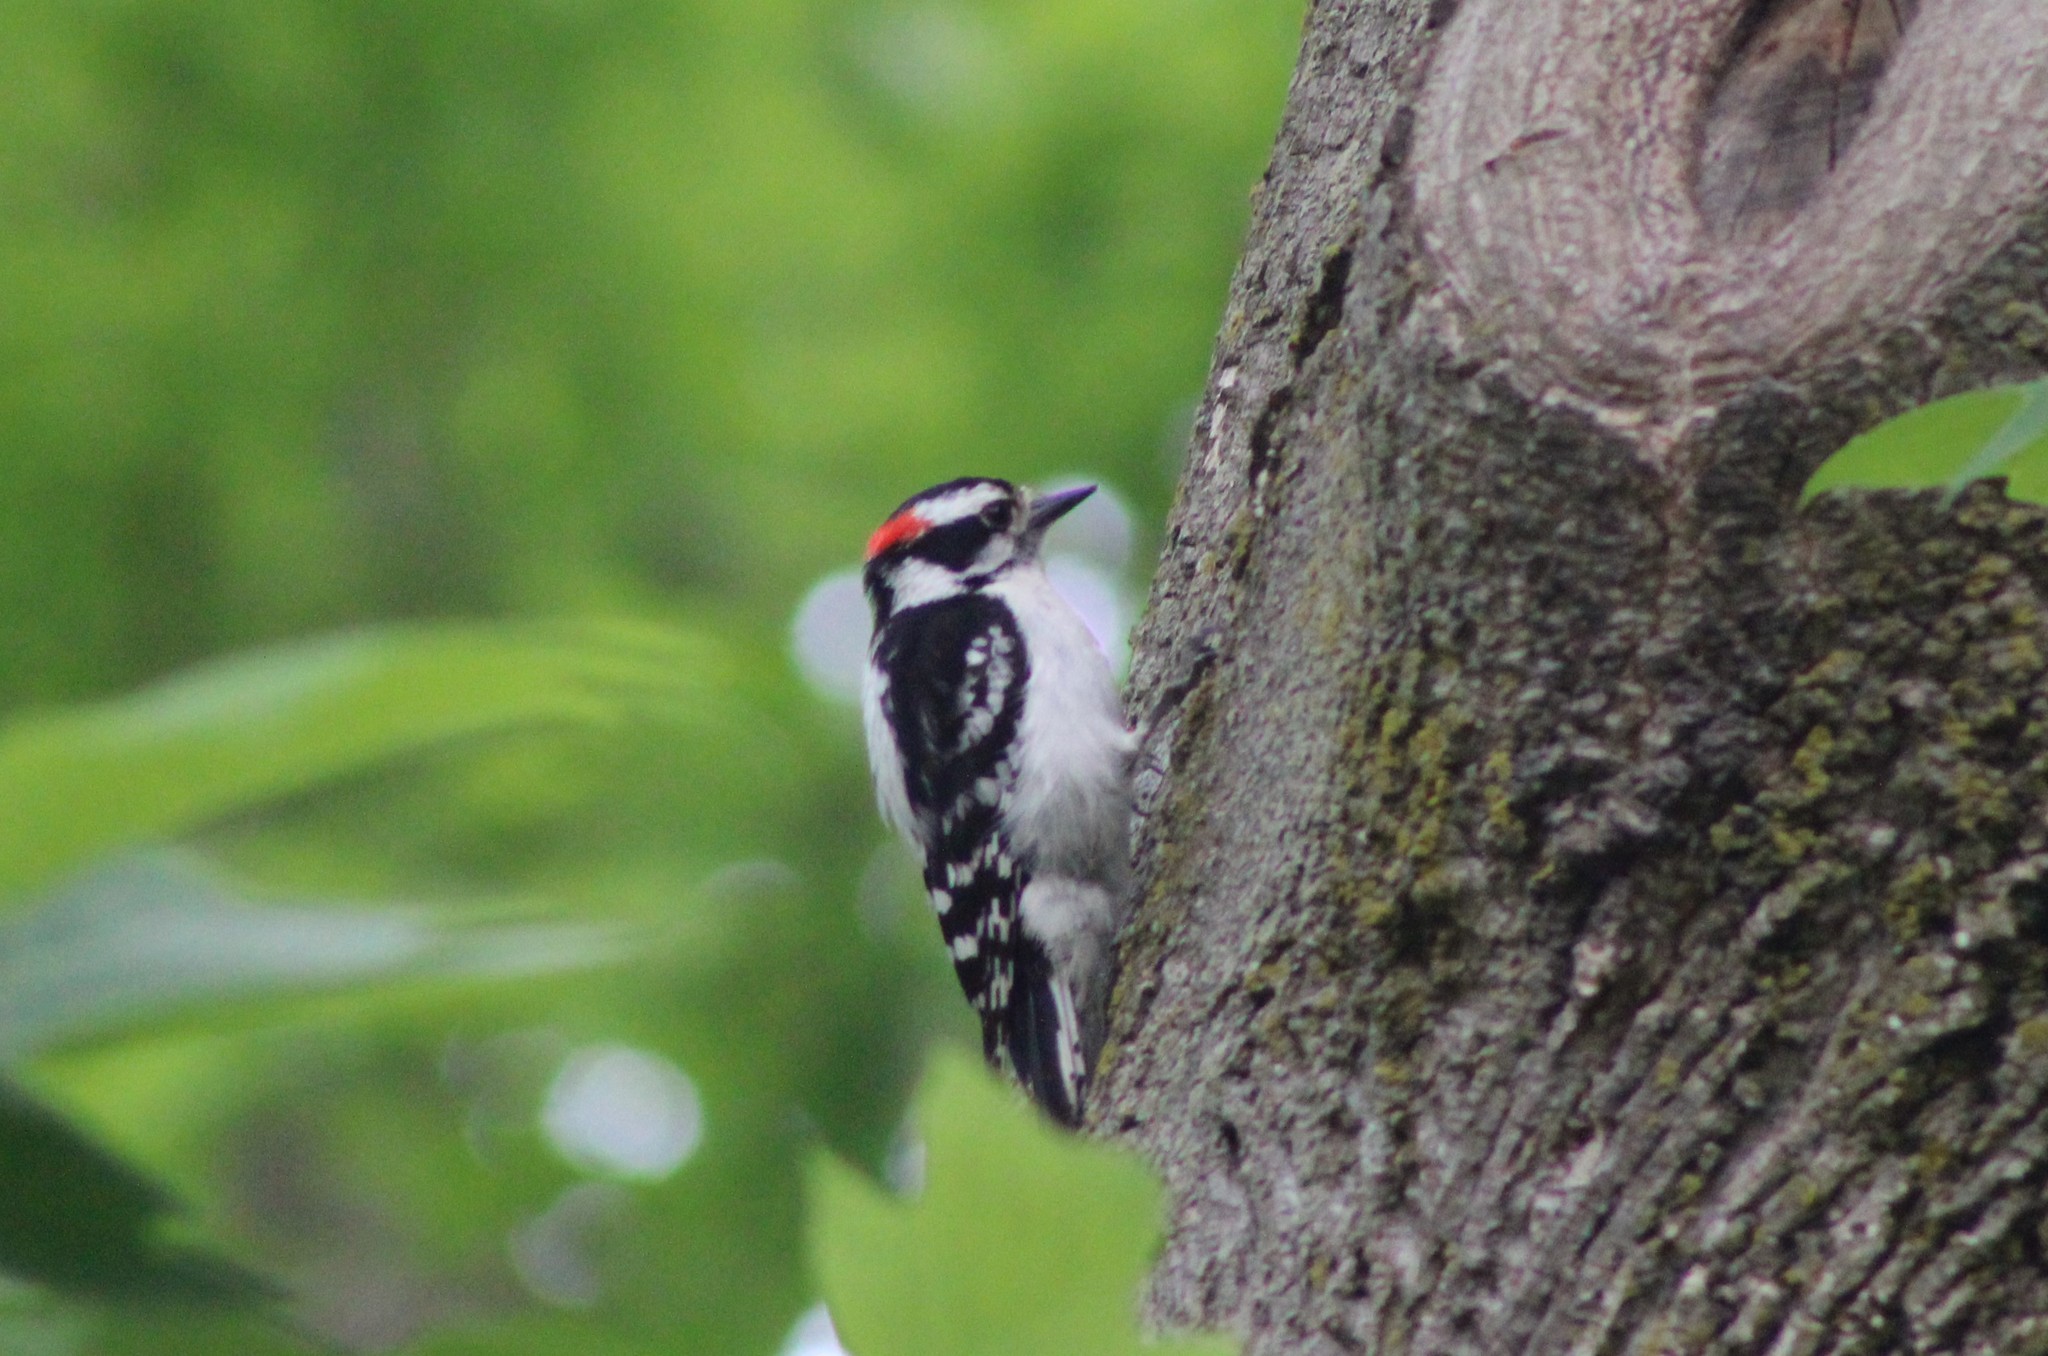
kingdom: Animalia
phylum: Chordata
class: Aves
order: Piciformes
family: Picidae
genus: Dryobates
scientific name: Dryobates pubescens
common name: Downy woodpecker
